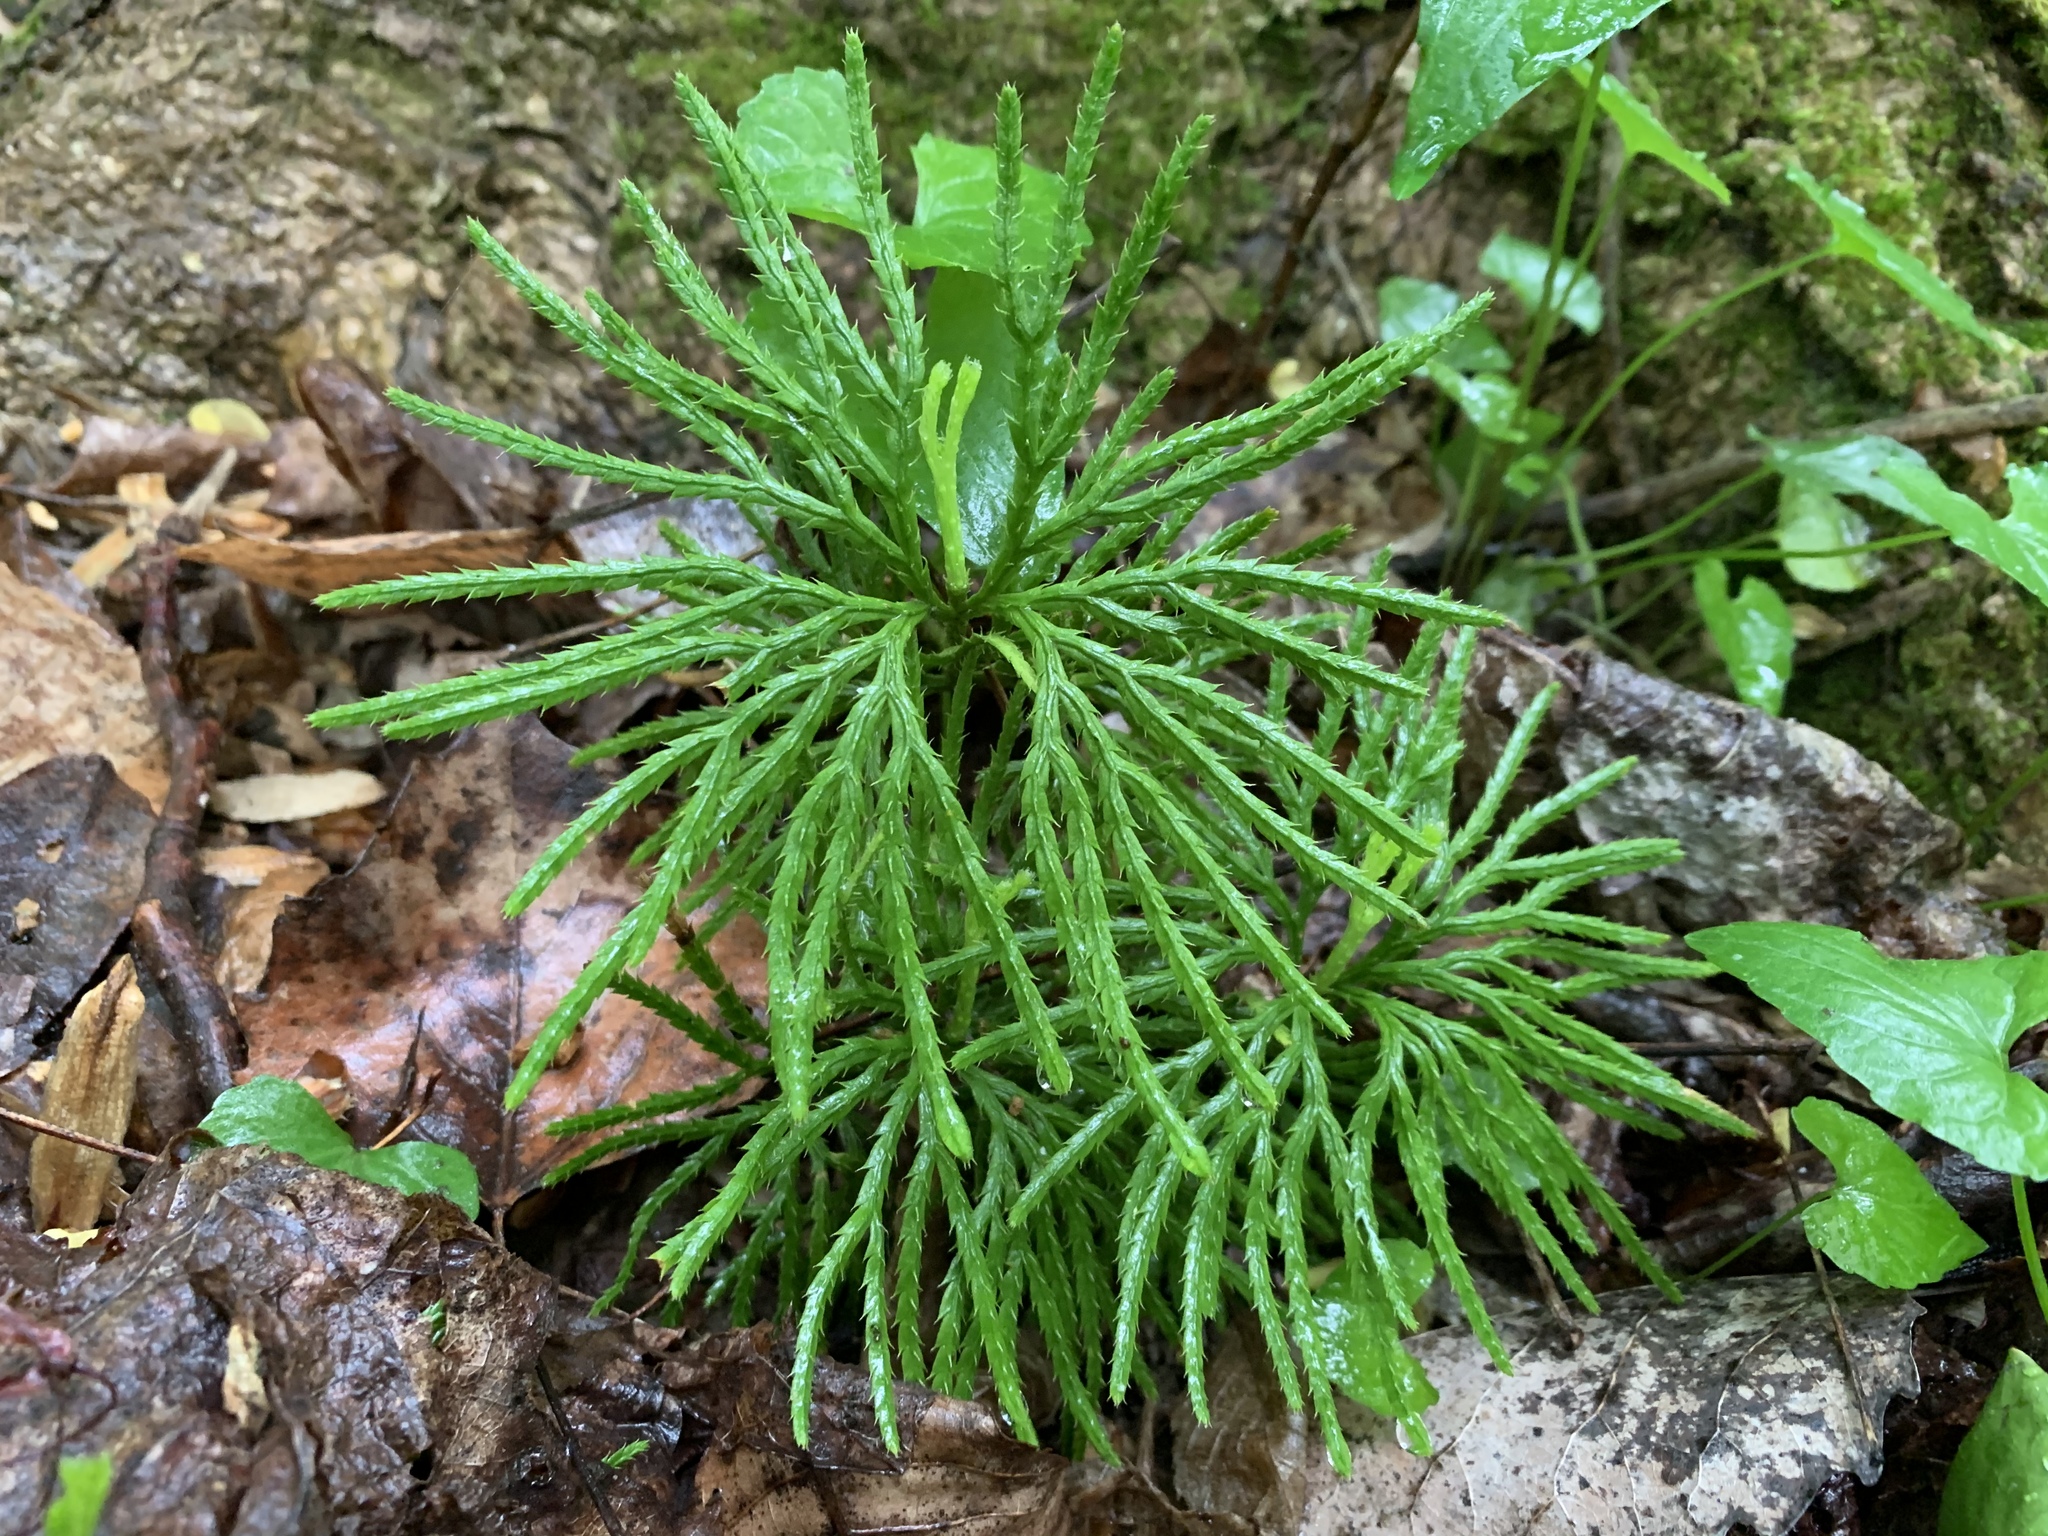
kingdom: Plantae
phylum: Tracheophyta
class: Lycopodiopsida
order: Lycopodiales
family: Lycopodiaceae
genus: Diphasiastrum
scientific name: Diphasiastrum digitatum
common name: Southern running-pine
